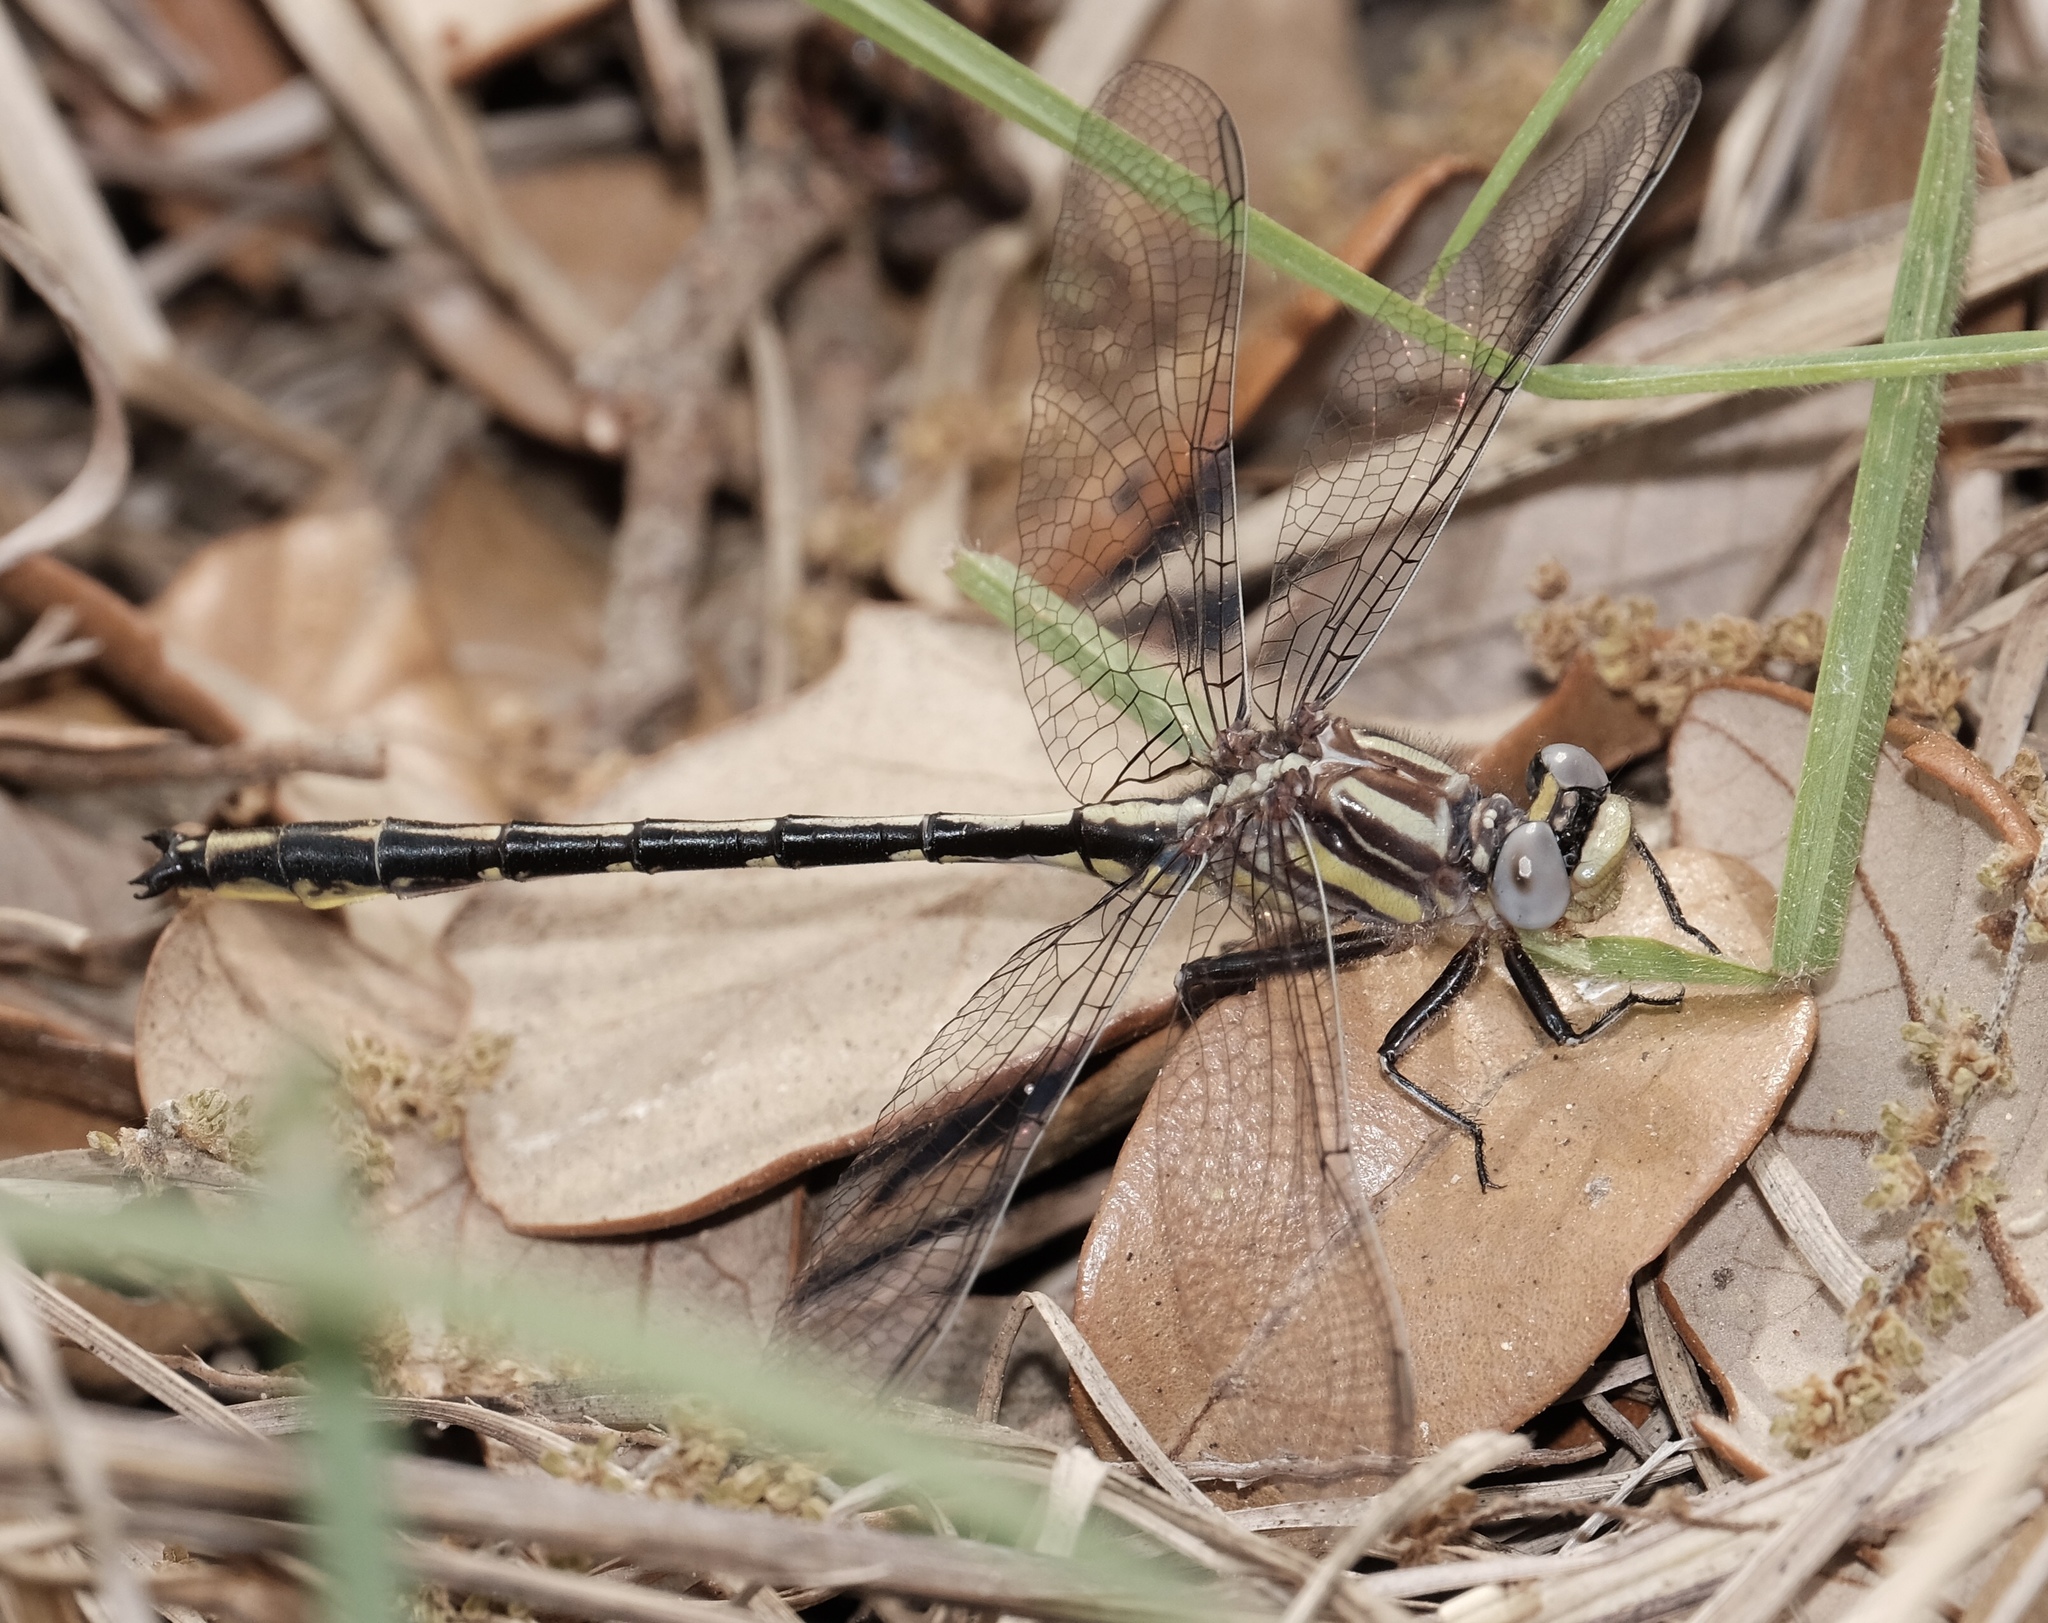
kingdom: Animalia
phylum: Arthropoda
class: Insecta
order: Odonata
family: Gomphidae
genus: Phanogomphus
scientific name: Phanogomphus oklahomensis
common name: Oklahoma clubtail
